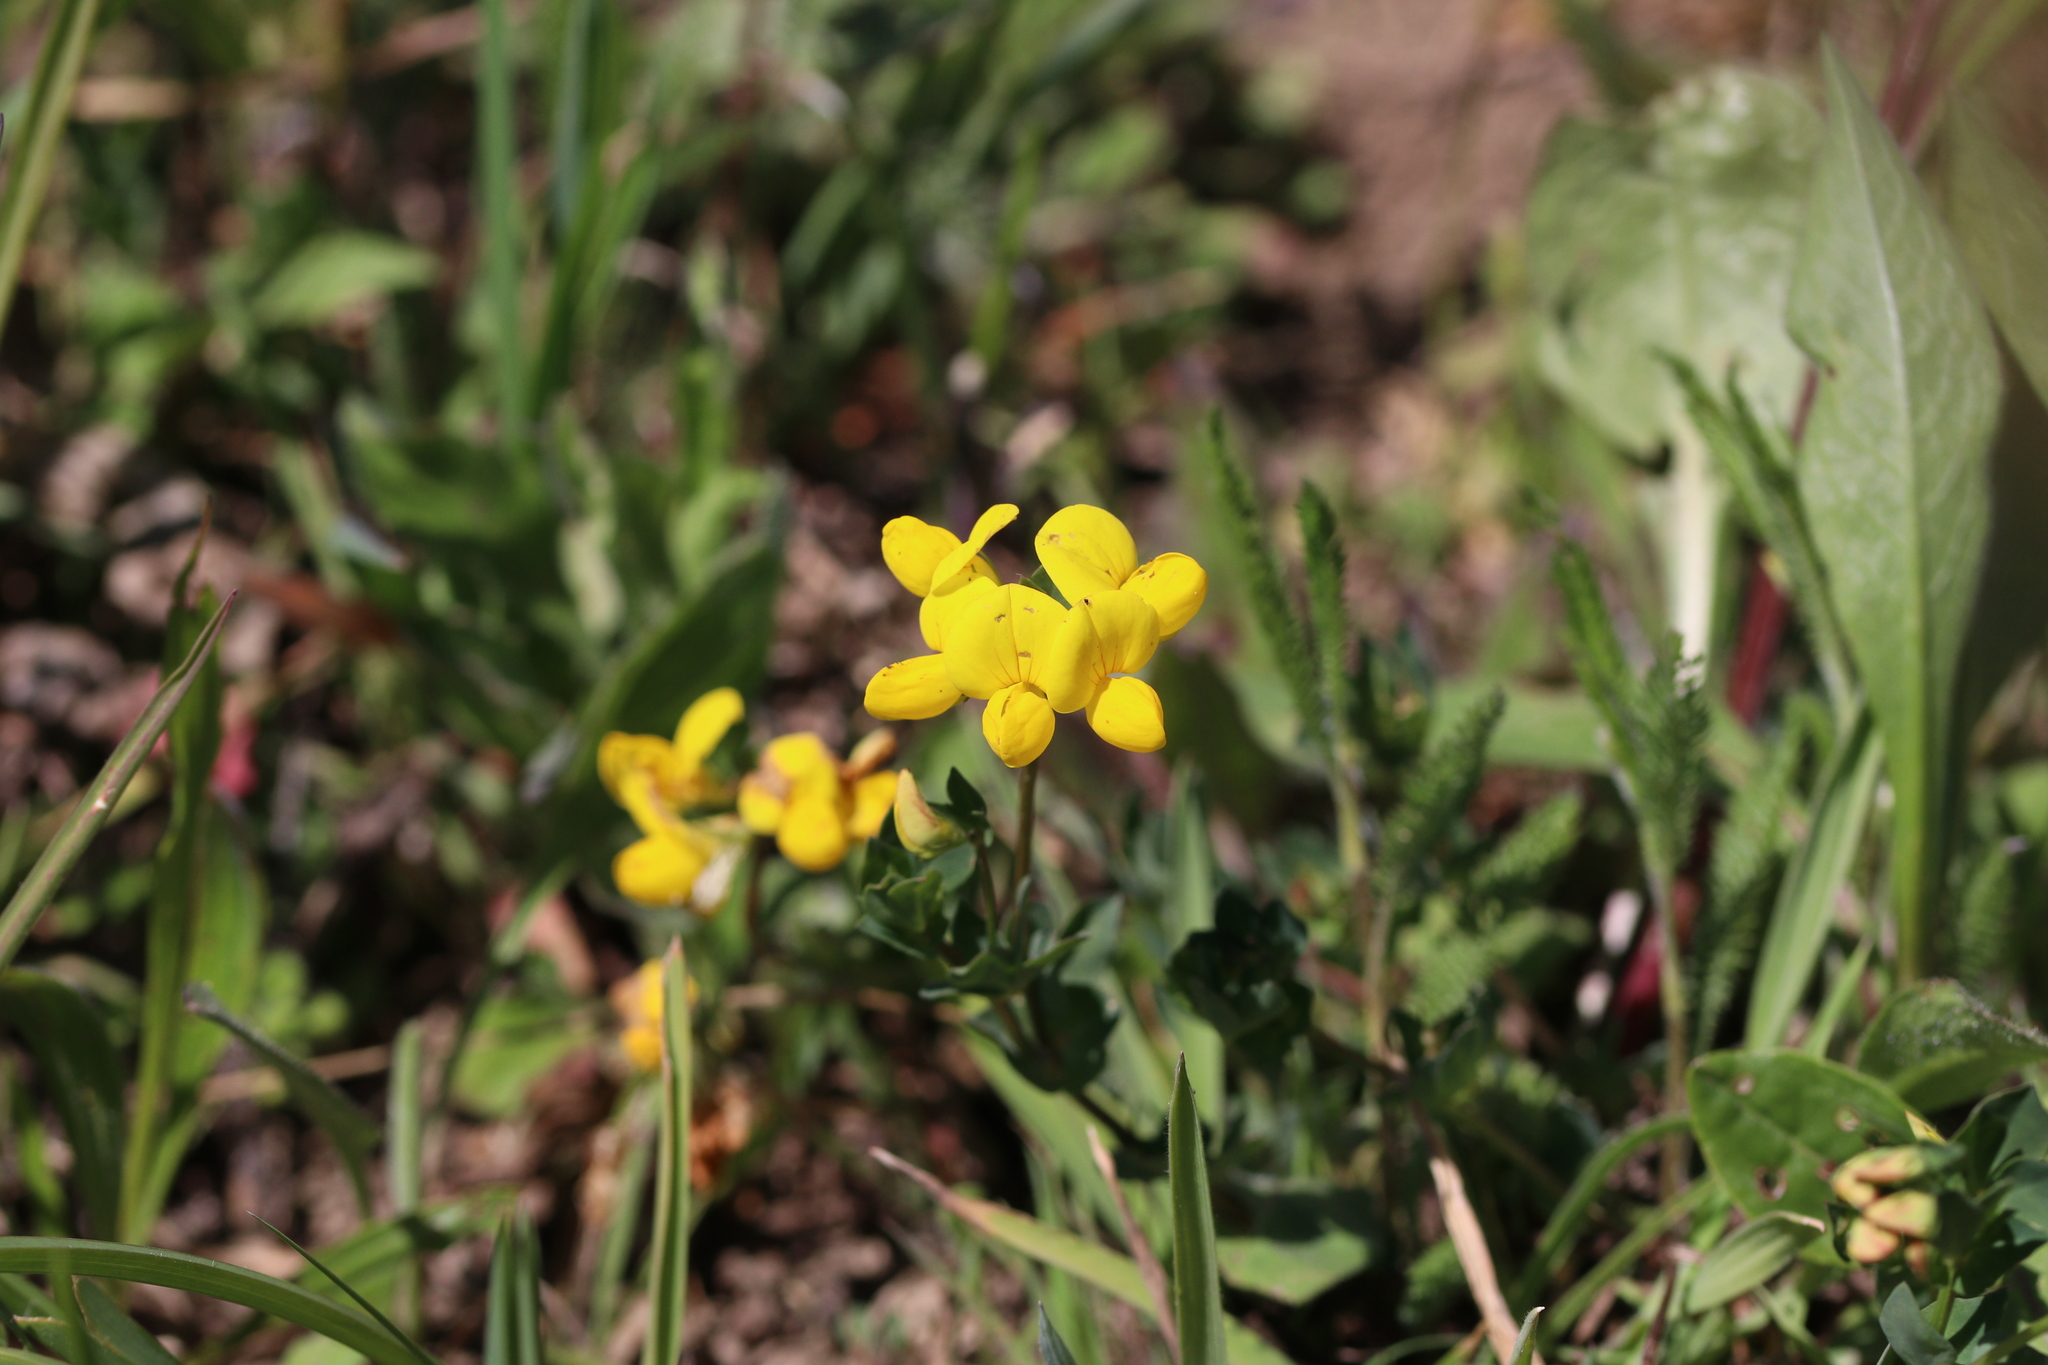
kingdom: Plantae
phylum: Tracheophyta
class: Magnoliopsida
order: Fabales
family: Fabaceae
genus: Lotus
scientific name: Lotus corniculatus
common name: Common bird's-foot-trefoil
